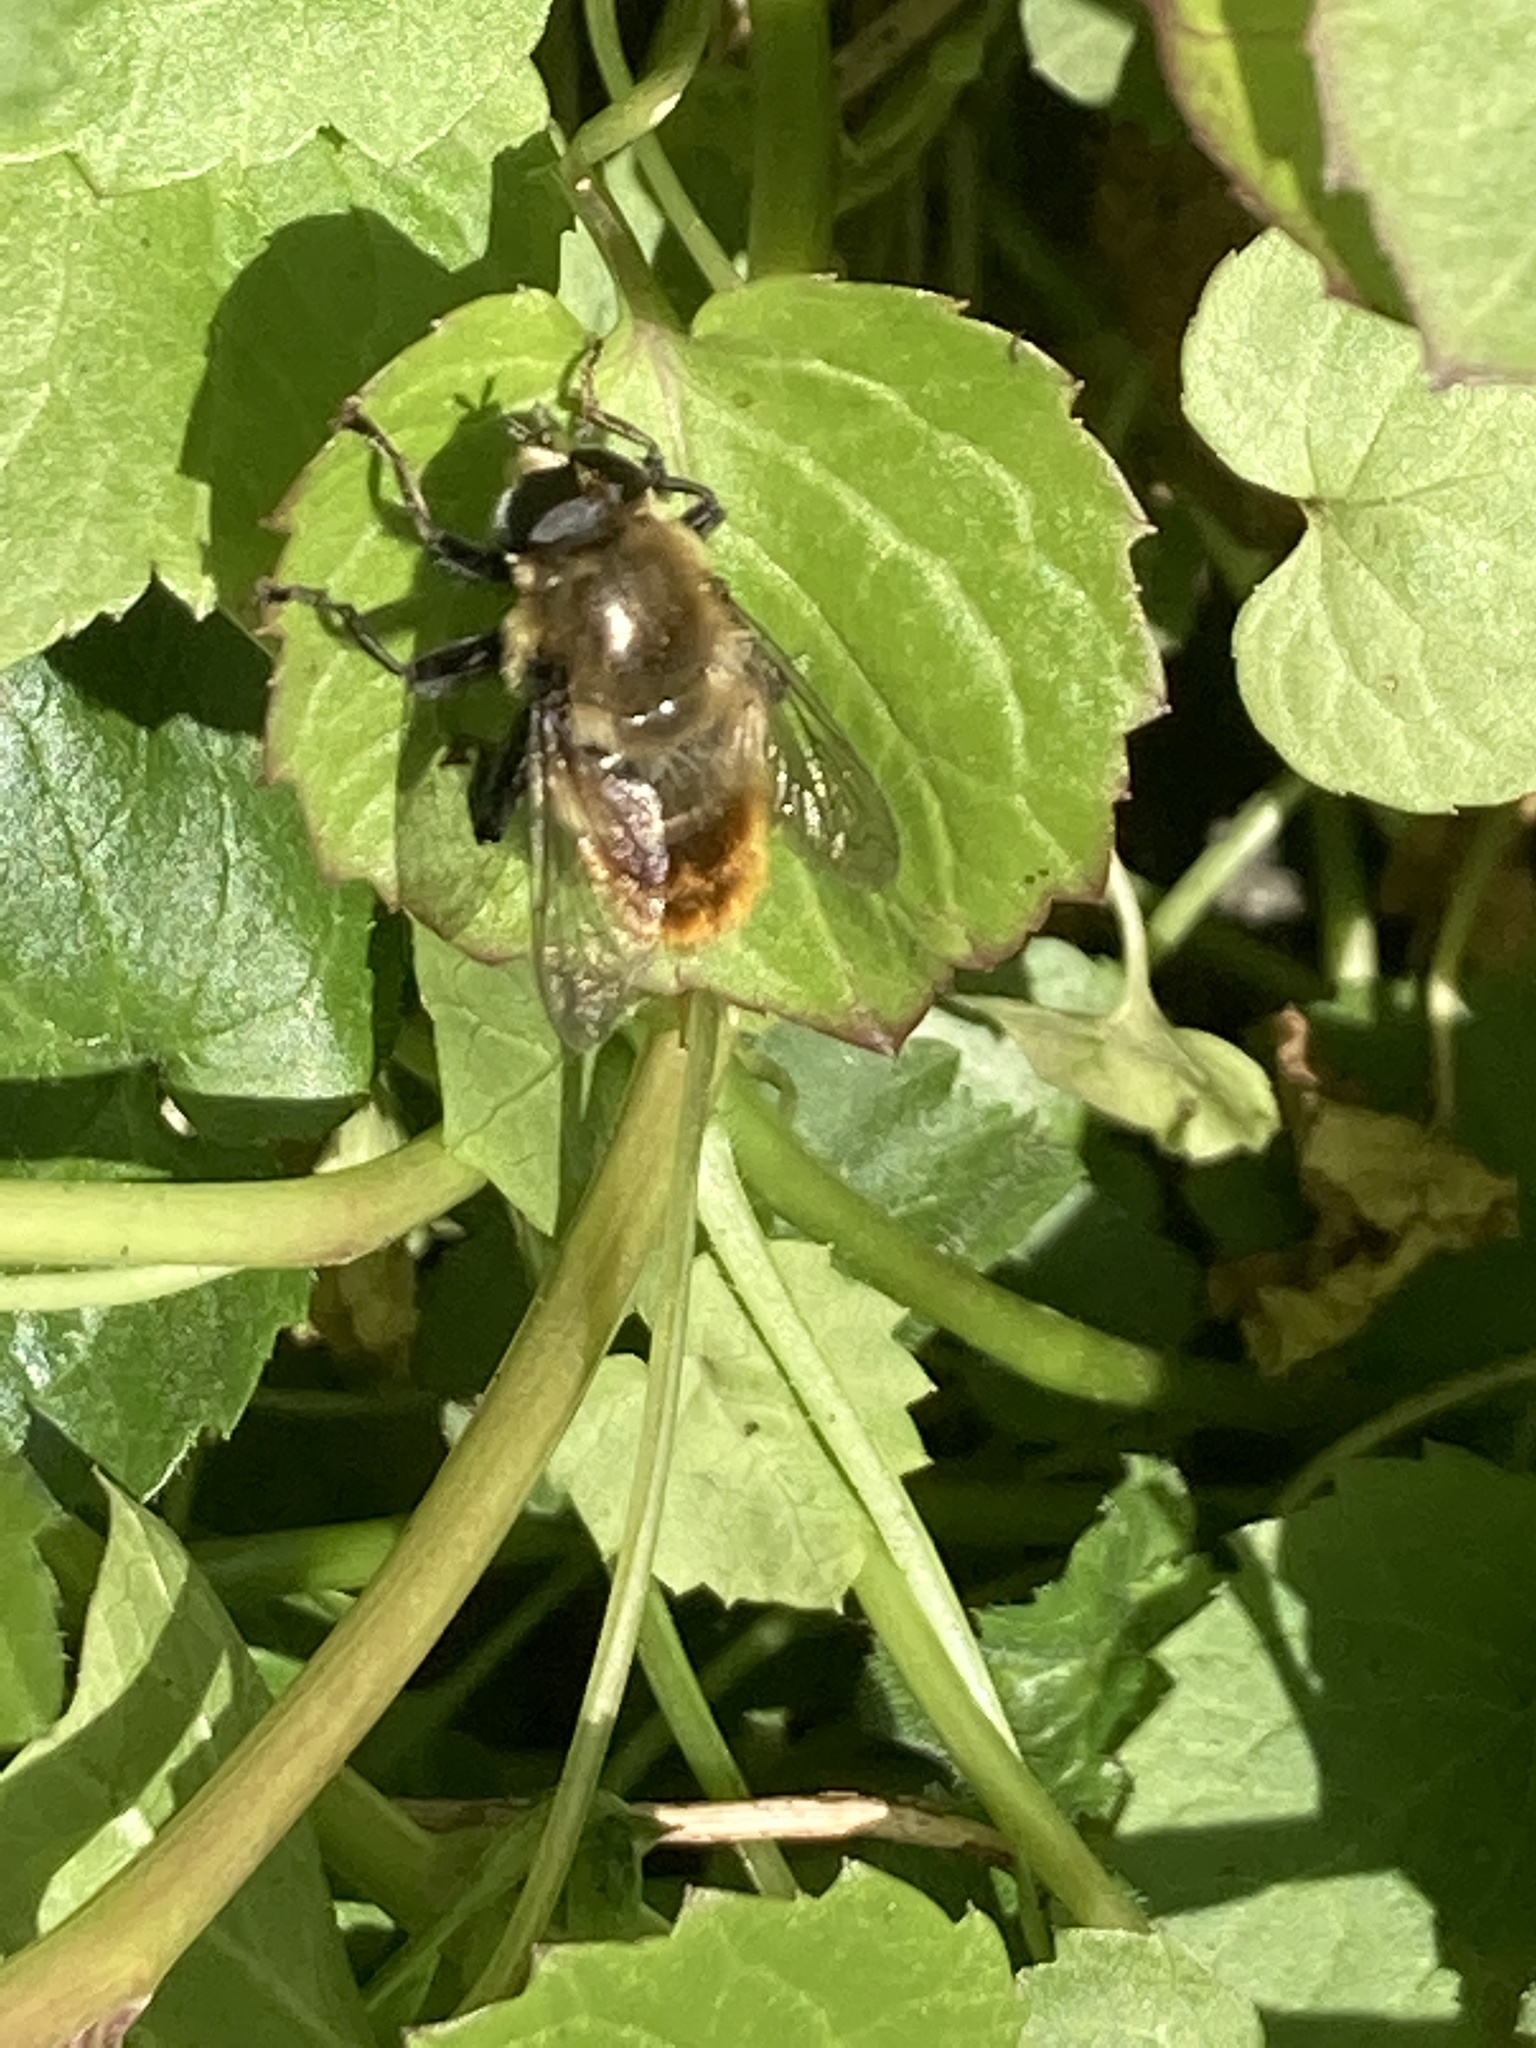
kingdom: Animalia
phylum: Arthropoda
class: Insecta
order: Diptera
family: Syrphidae
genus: Merodon
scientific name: Merodon equestris
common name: Greater bulb-fly
